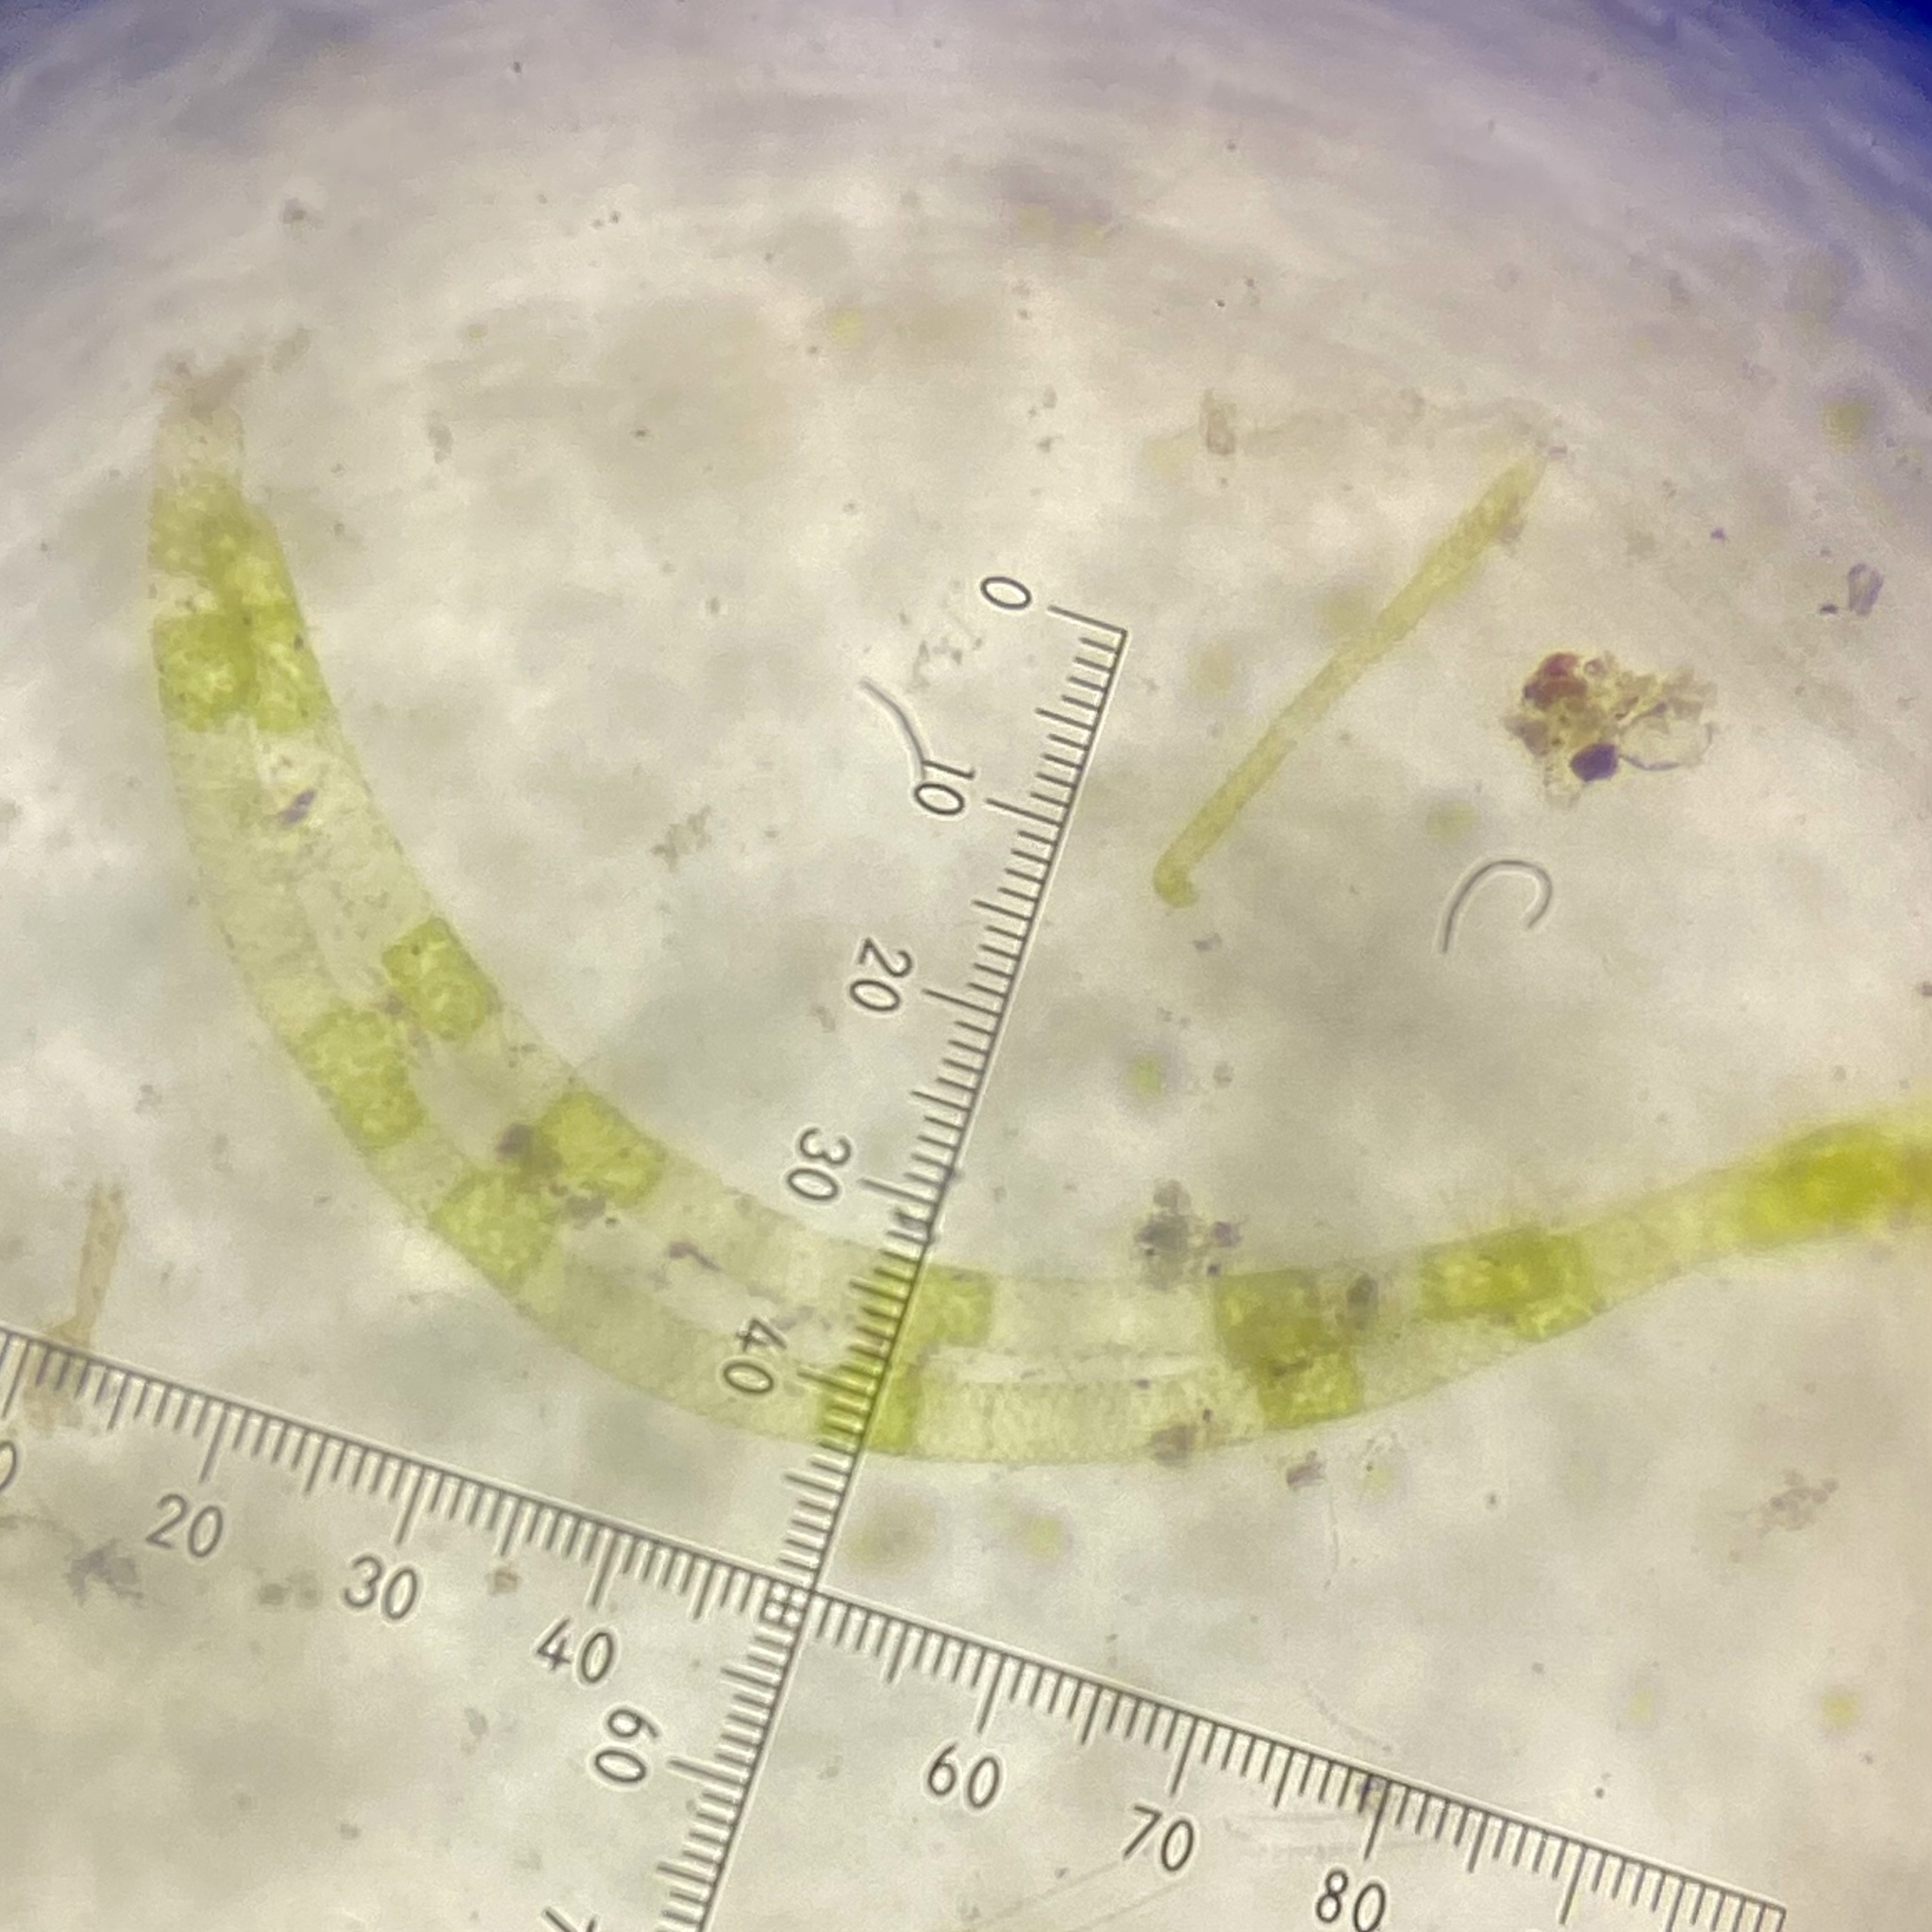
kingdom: Plantae
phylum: Charophyta
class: Zygnematophyceae
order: Zygnematales
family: Zygnemataceae
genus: Spirogyra
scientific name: Spirogyra
